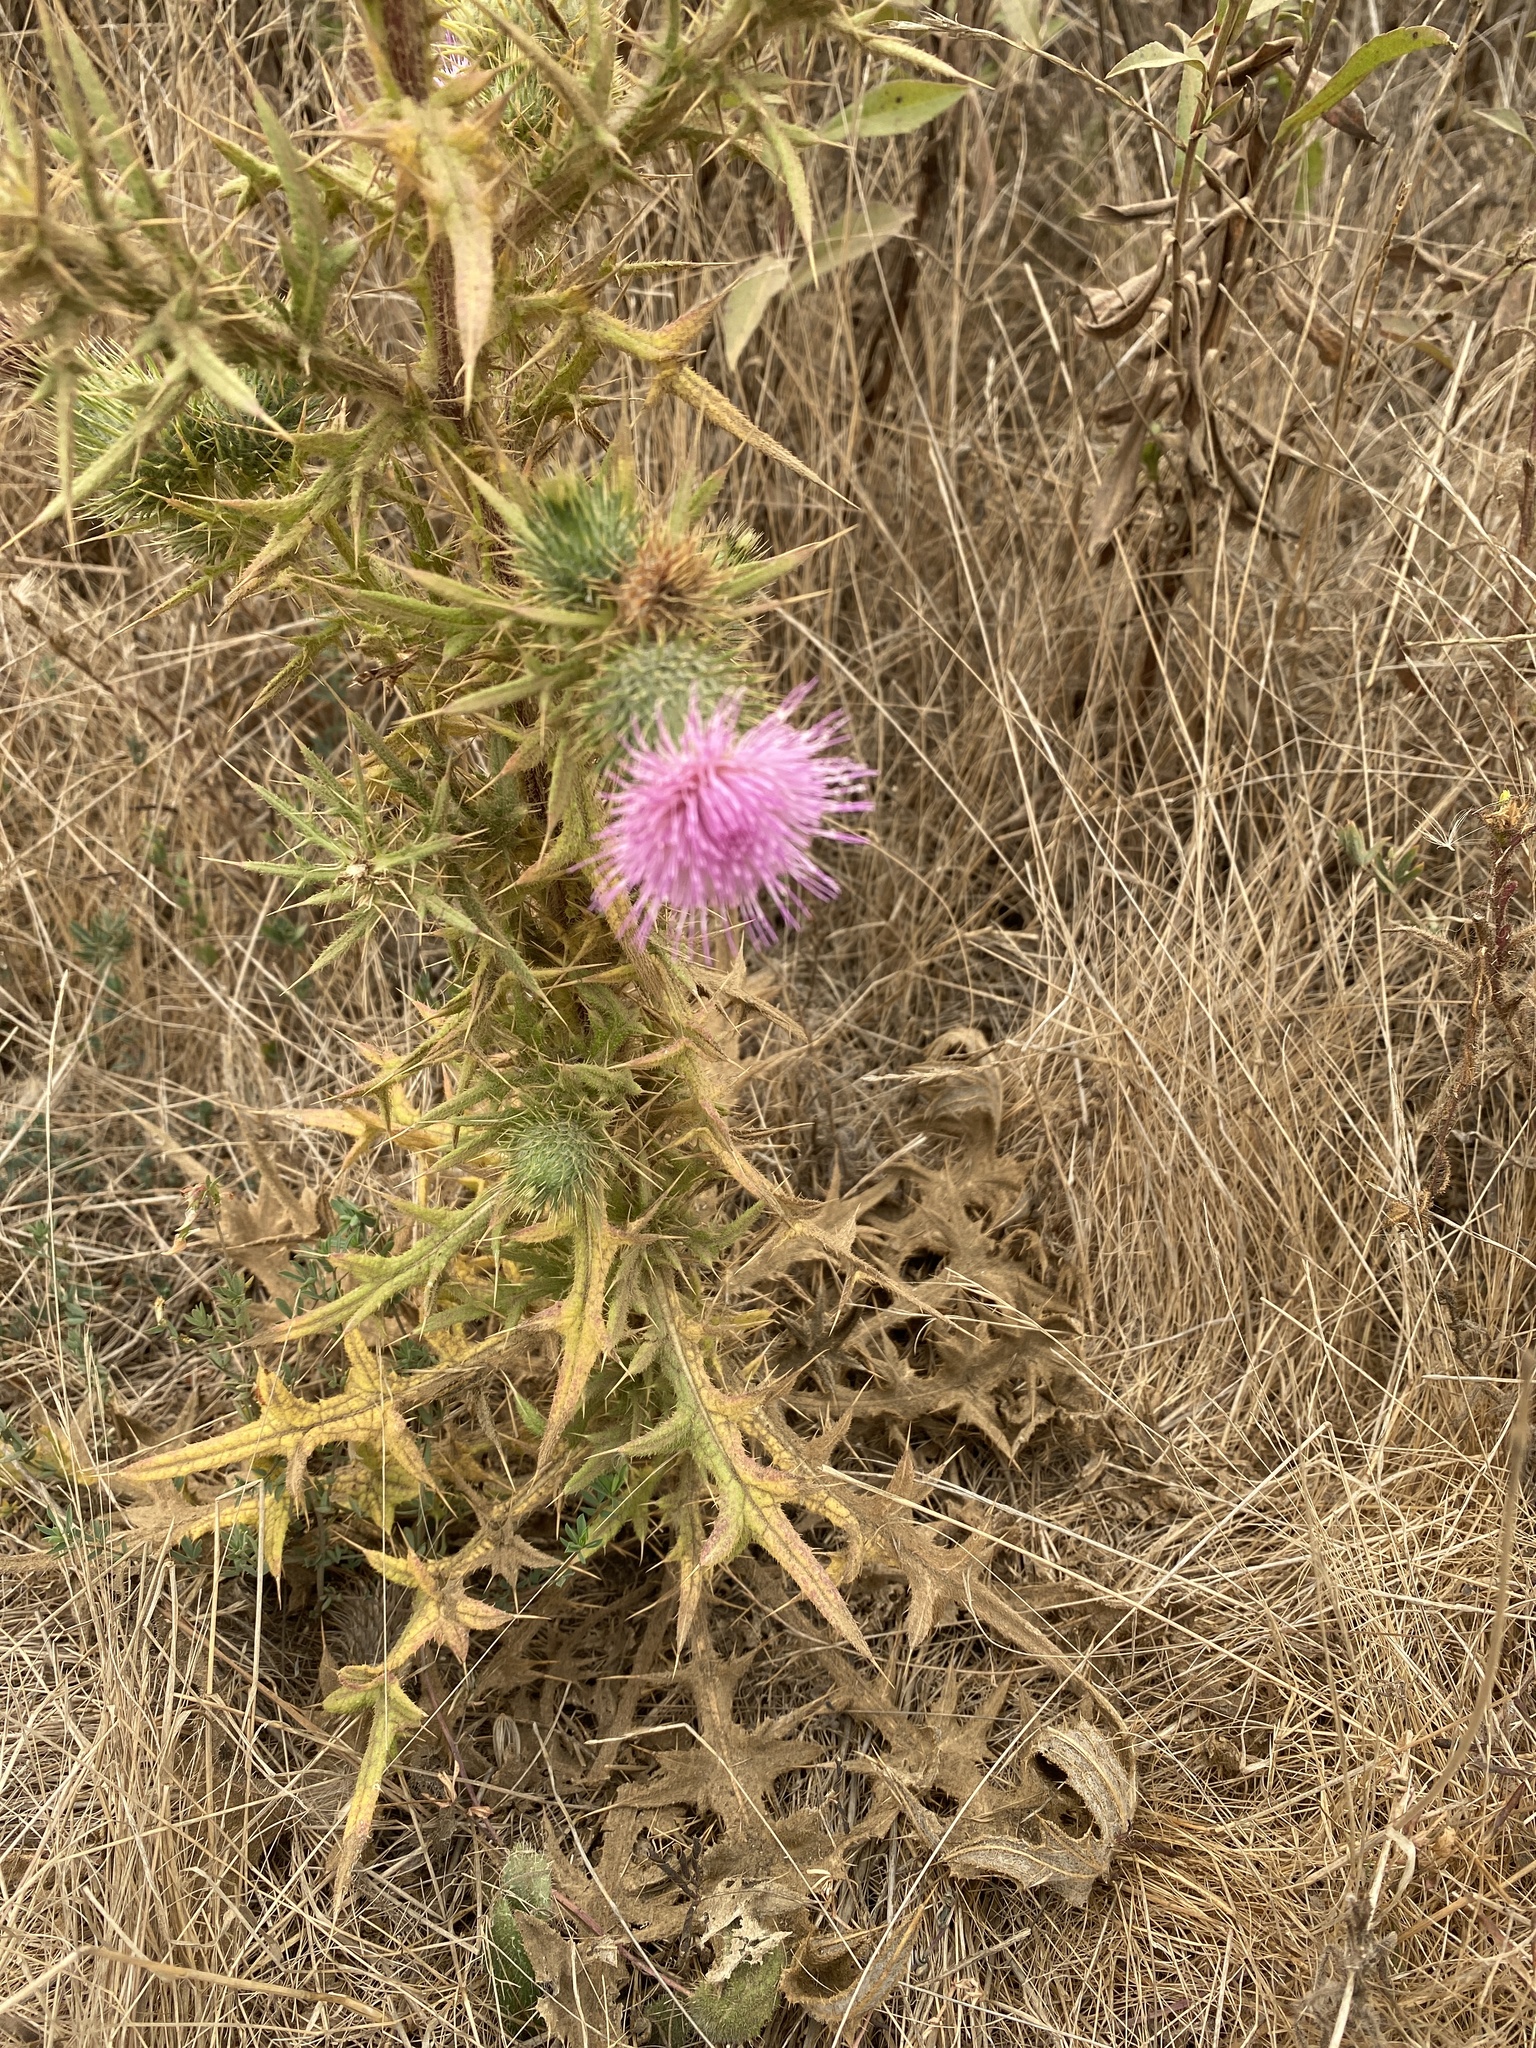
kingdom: Plantae
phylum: Tracheophyta
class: Magnoliopsida
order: Asterales
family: Asteraceae
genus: Cirsium
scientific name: Cirsium vulgare
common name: Bull thistle
